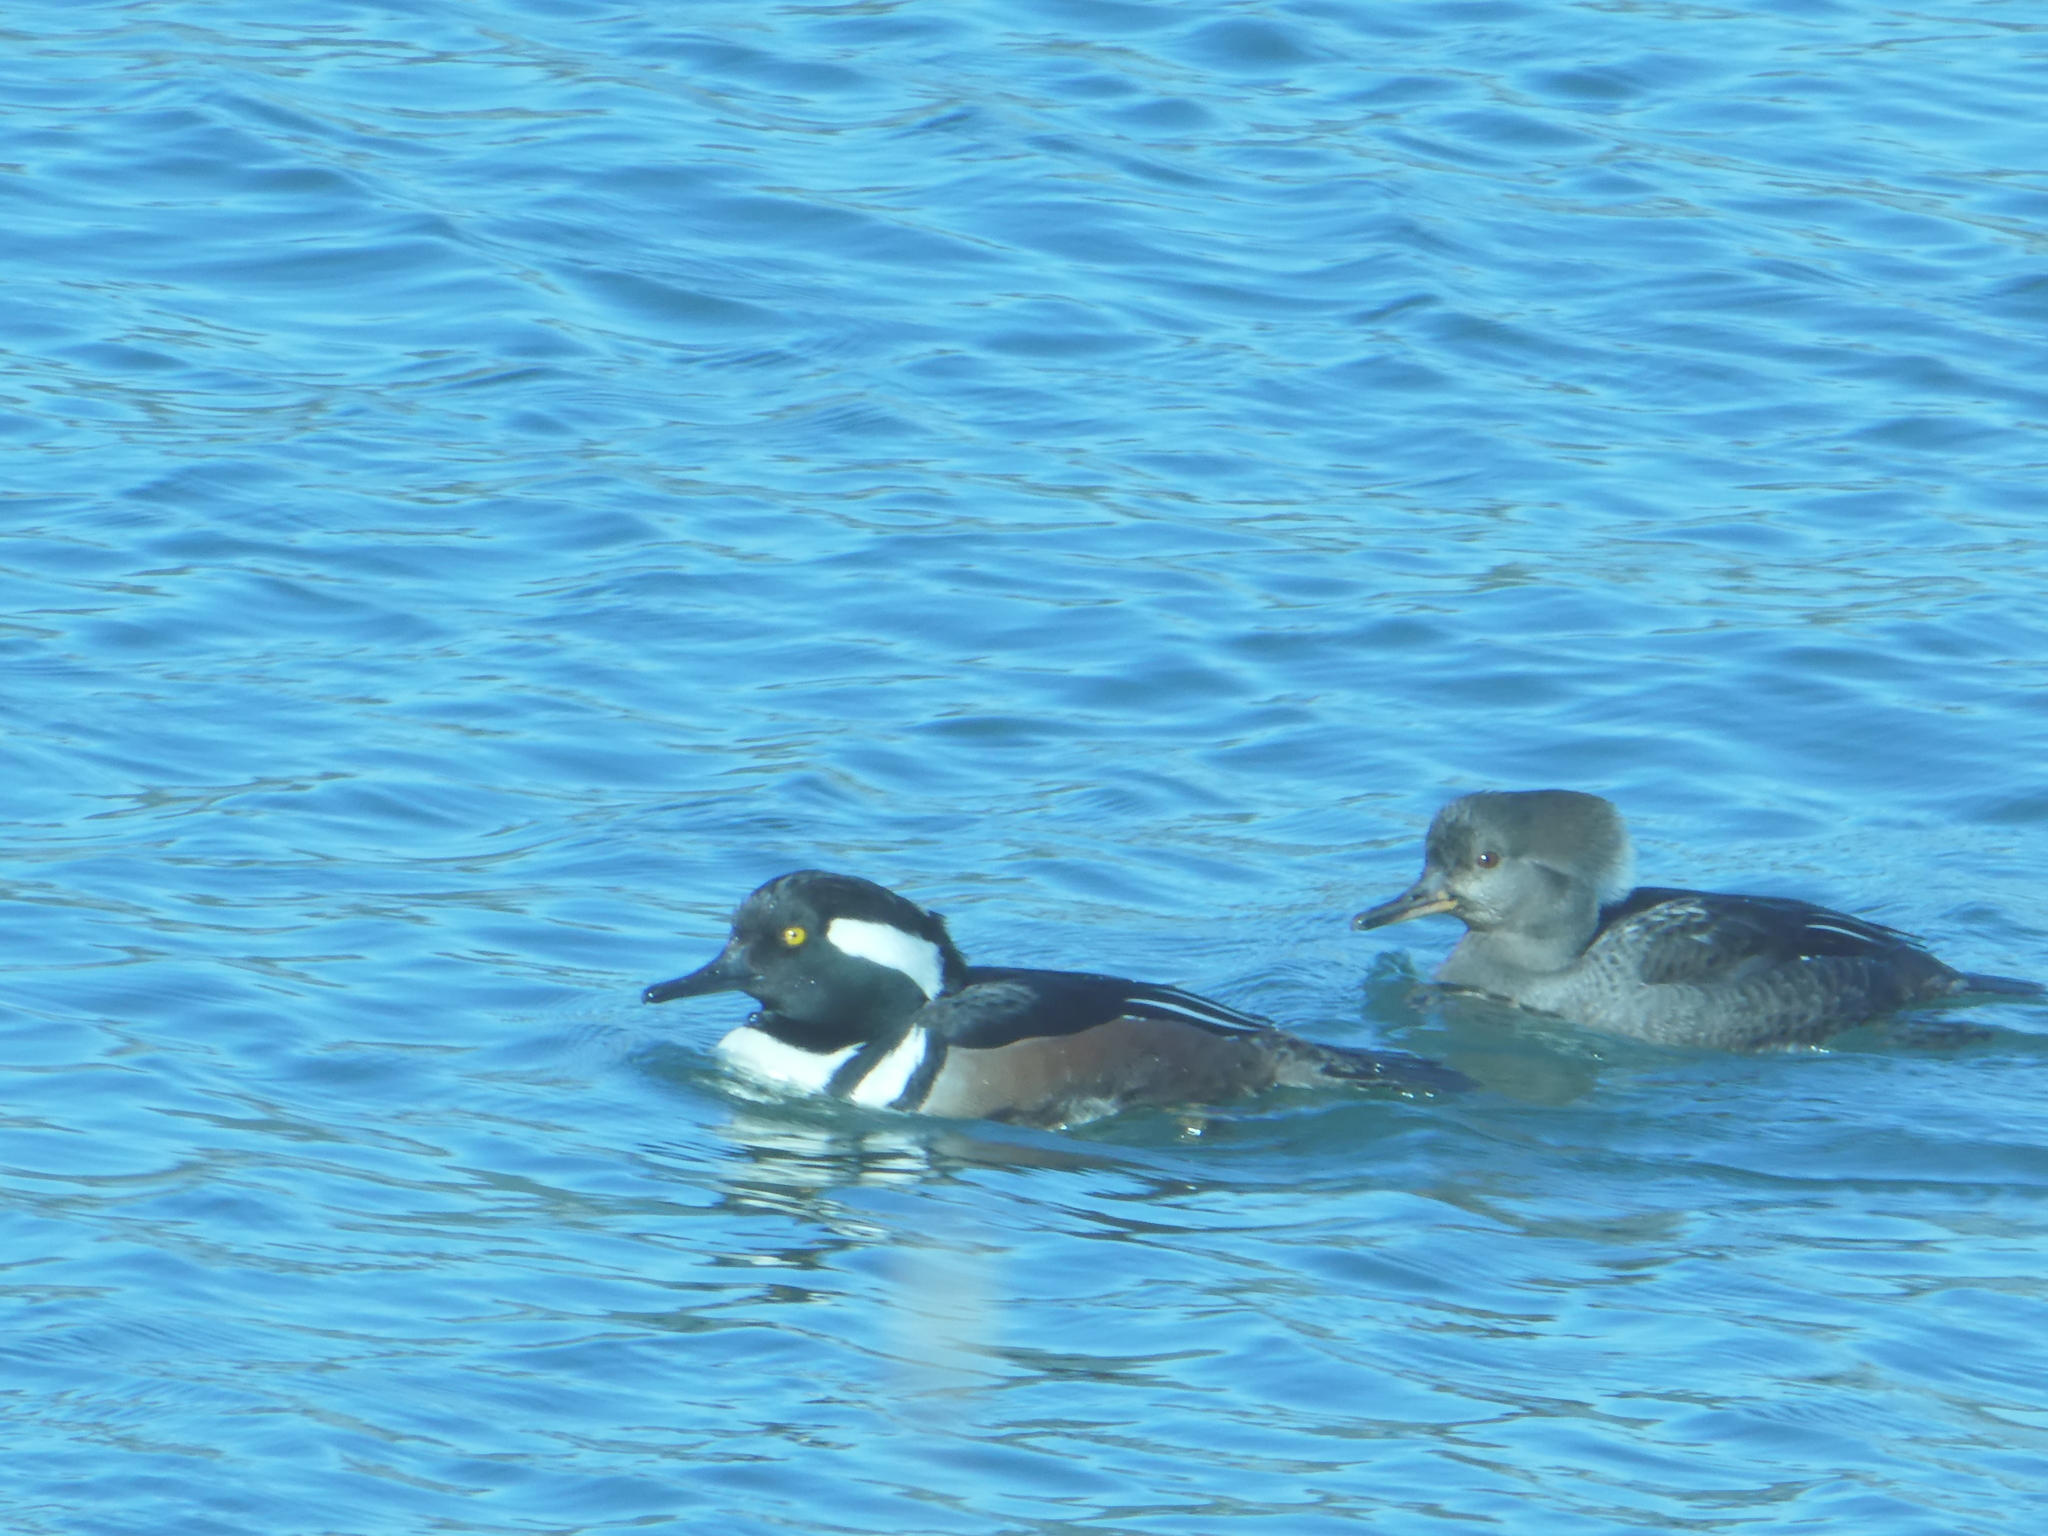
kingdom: Animalia
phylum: Chordata
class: Aves
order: Anseriformes
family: Anatidae
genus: Lophodytes
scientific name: Lophodytes cucullatus
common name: Hooded merganser
